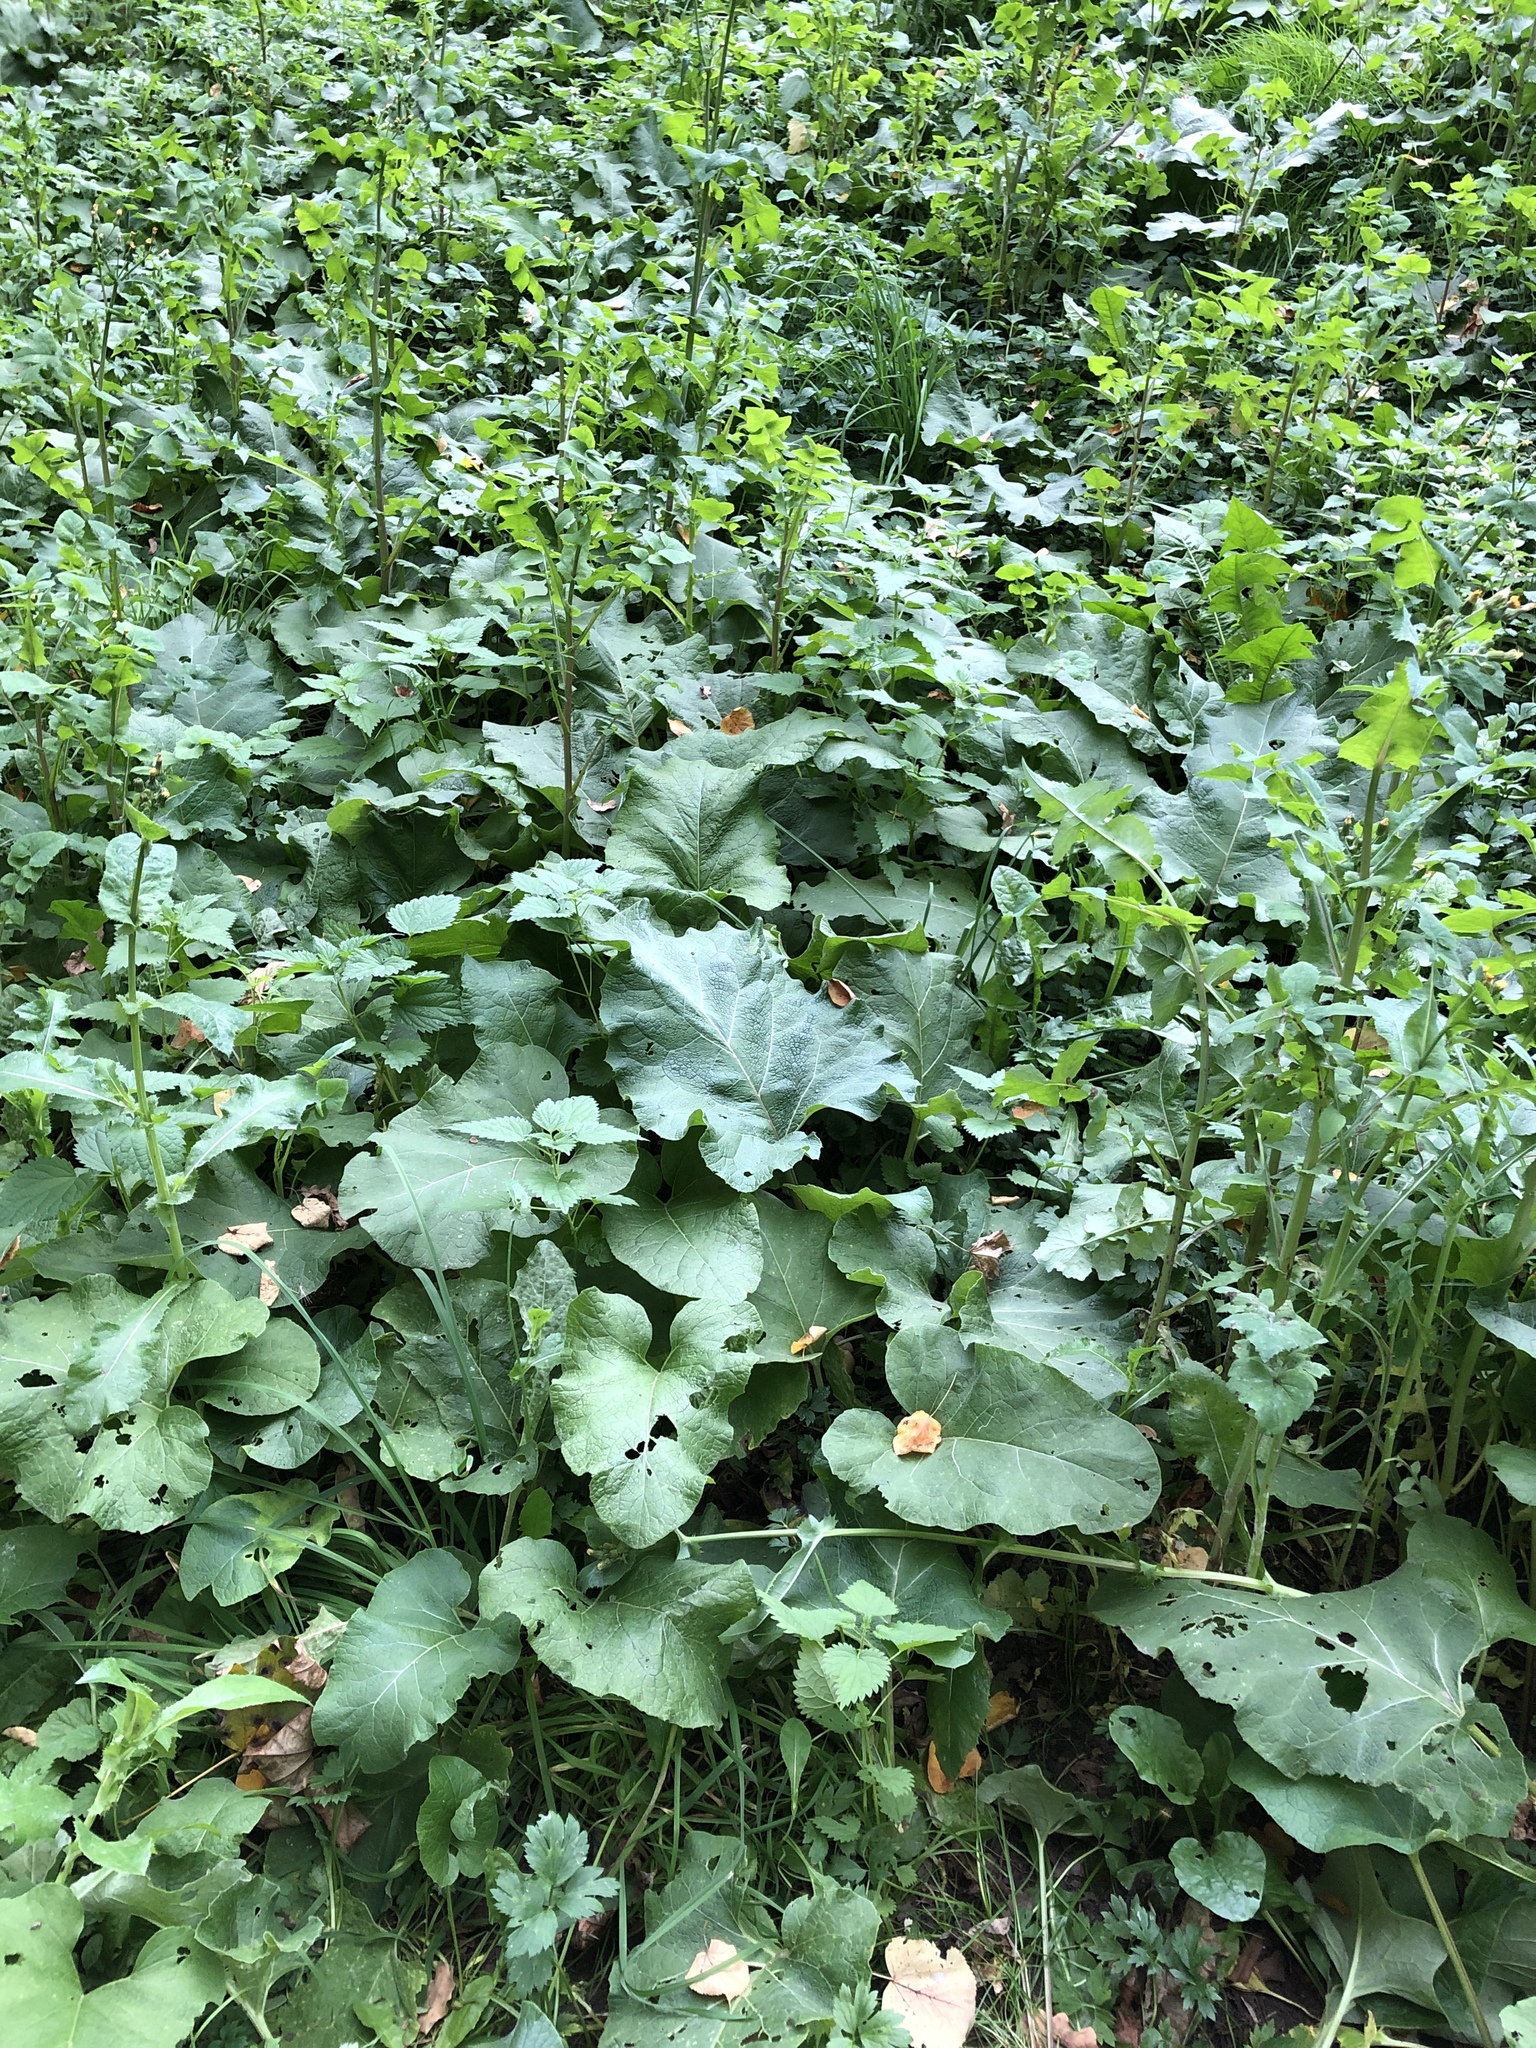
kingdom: Plantae
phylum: Tracheophyta
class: Magnoliopsida
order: Asterales
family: Asteraceae
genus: Arctium
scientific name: Arctium
